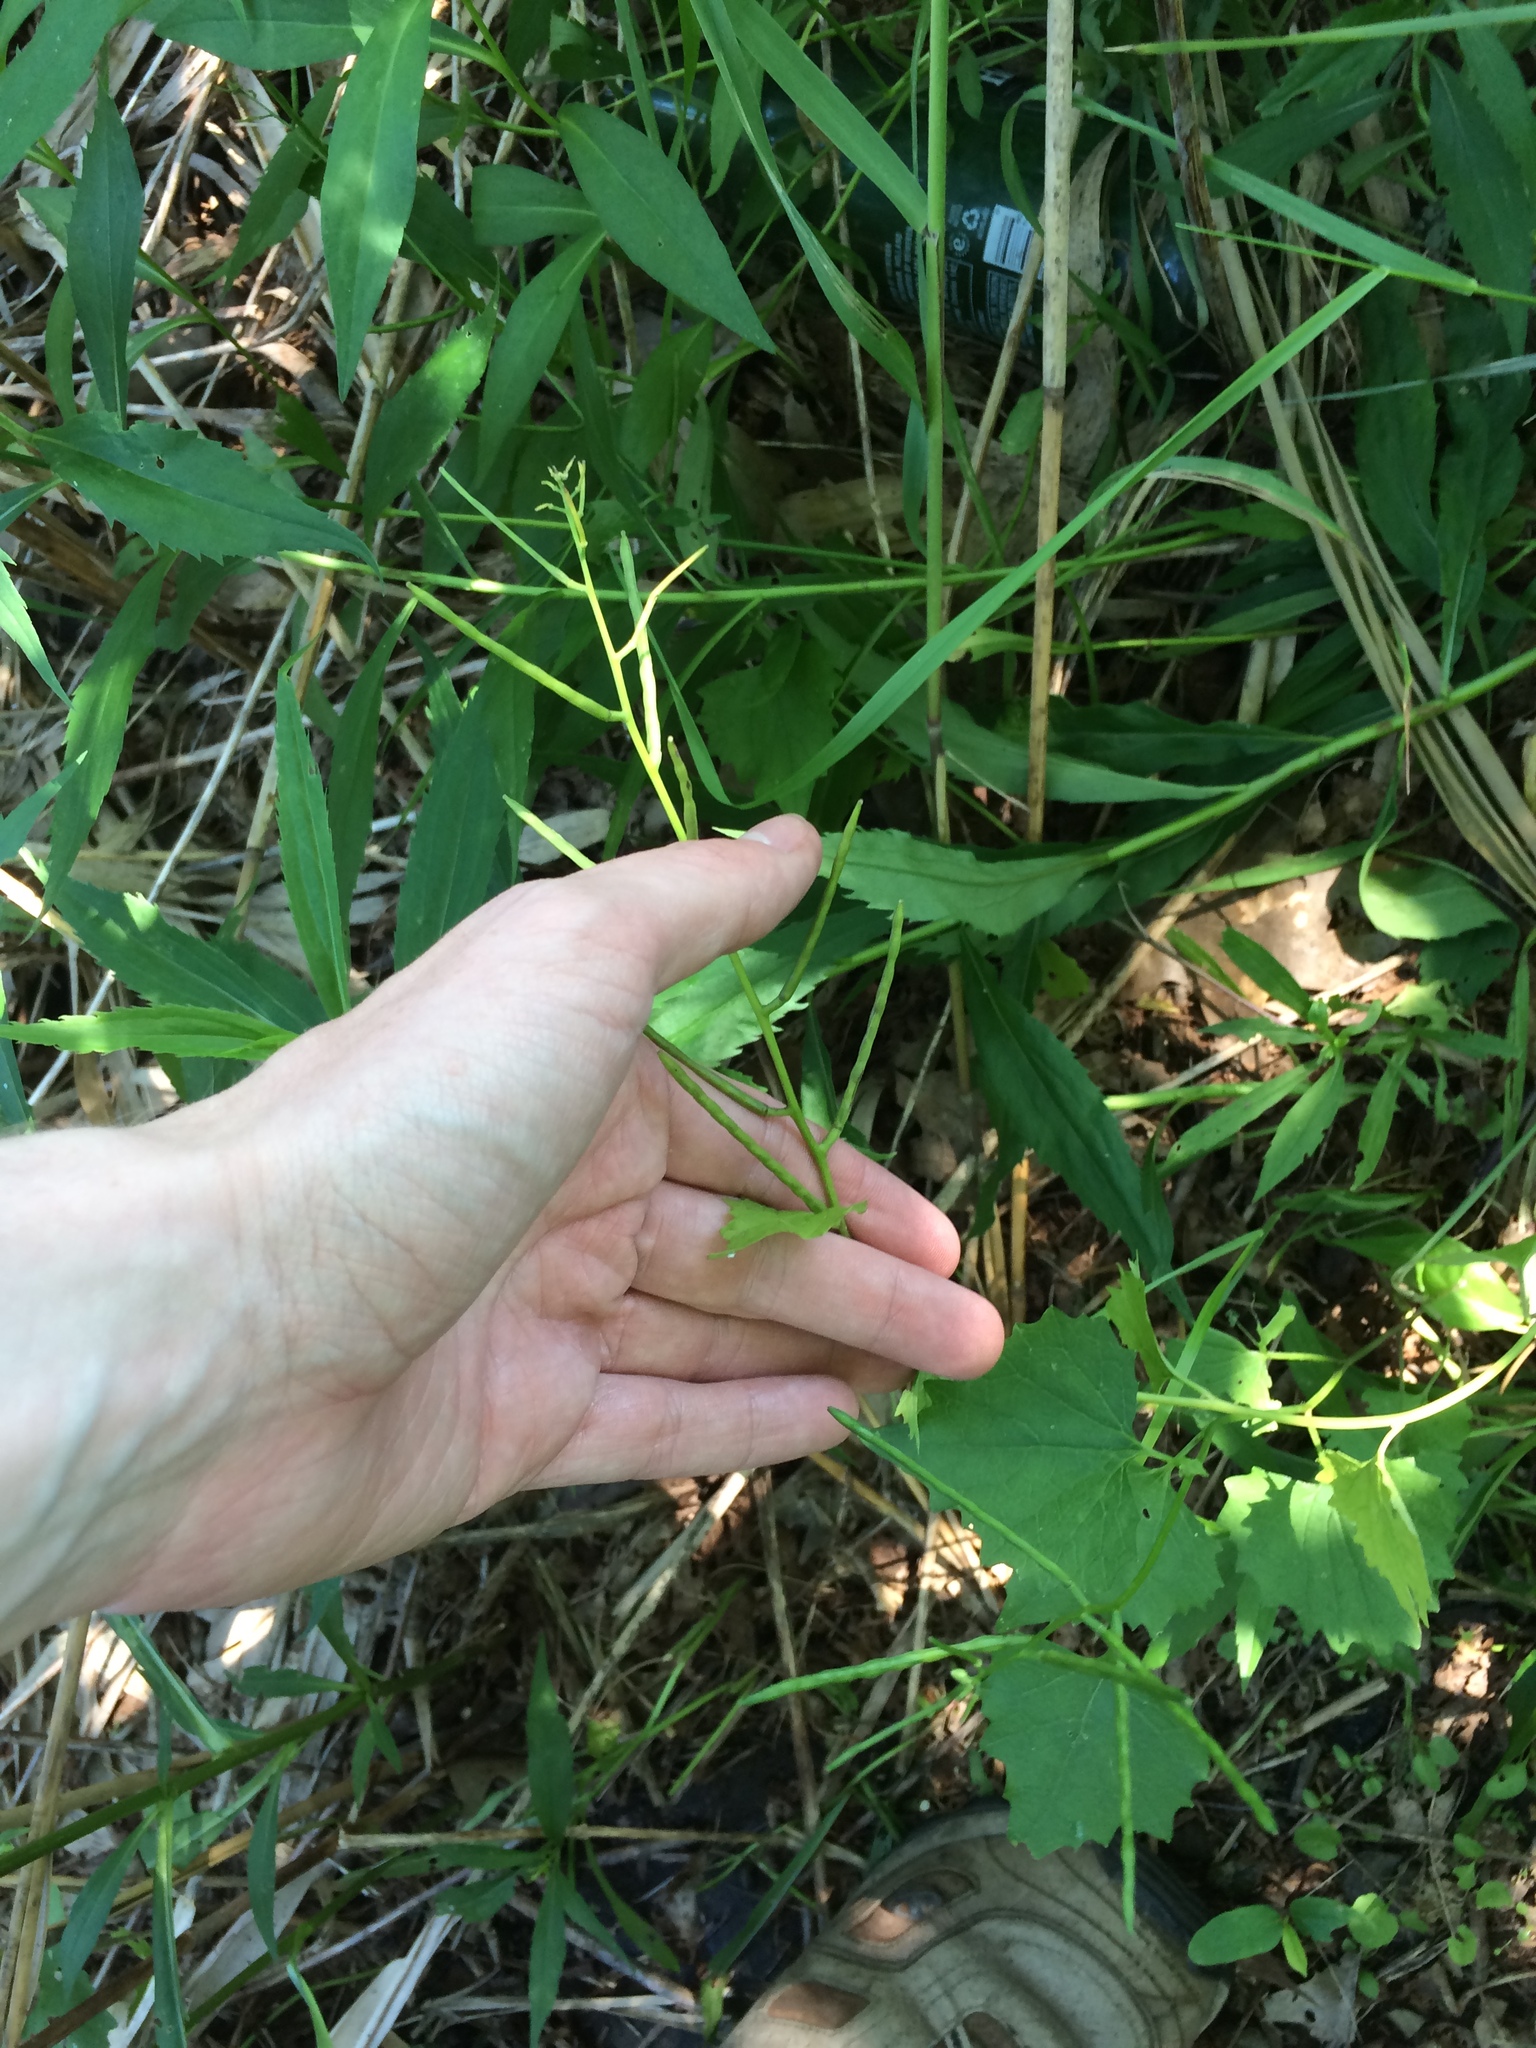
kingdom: Plantae
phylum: Tracheophyta
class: Magnoliopsida
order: Brassicales
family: Brassicaceae
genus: Alliaria
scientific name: Alliaria petiolata
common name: Garlic mustard
